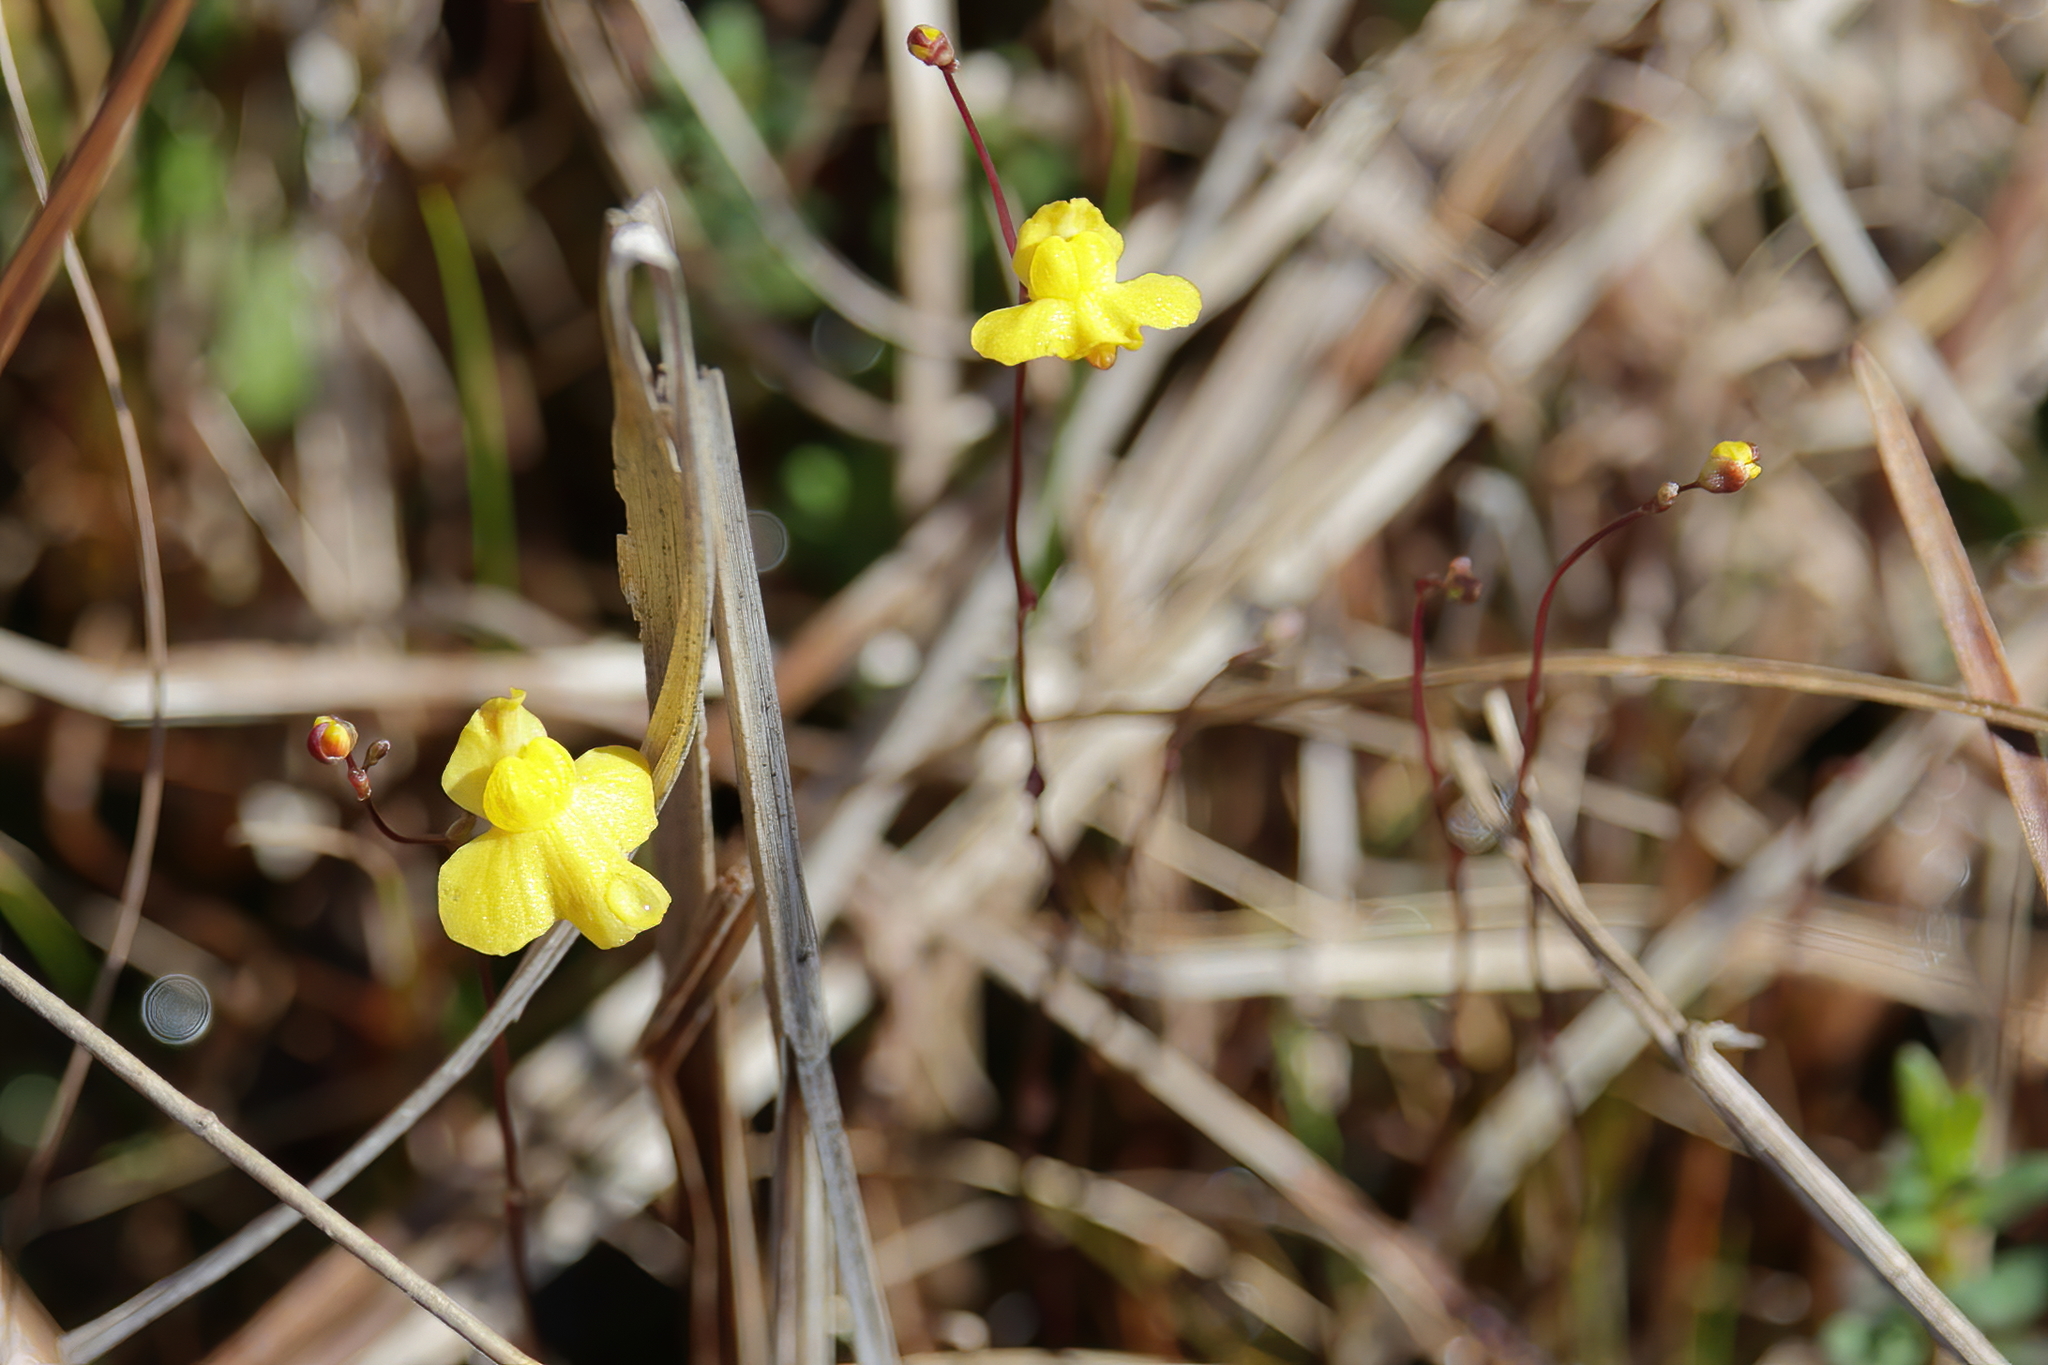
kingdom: Plantae
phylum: Tracheophyta
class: Magnoliopsida
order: Lamiales
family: Lentibulariaceae
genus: Utricularia
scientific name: Utricularia subulata
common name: Tiny bladderwort
